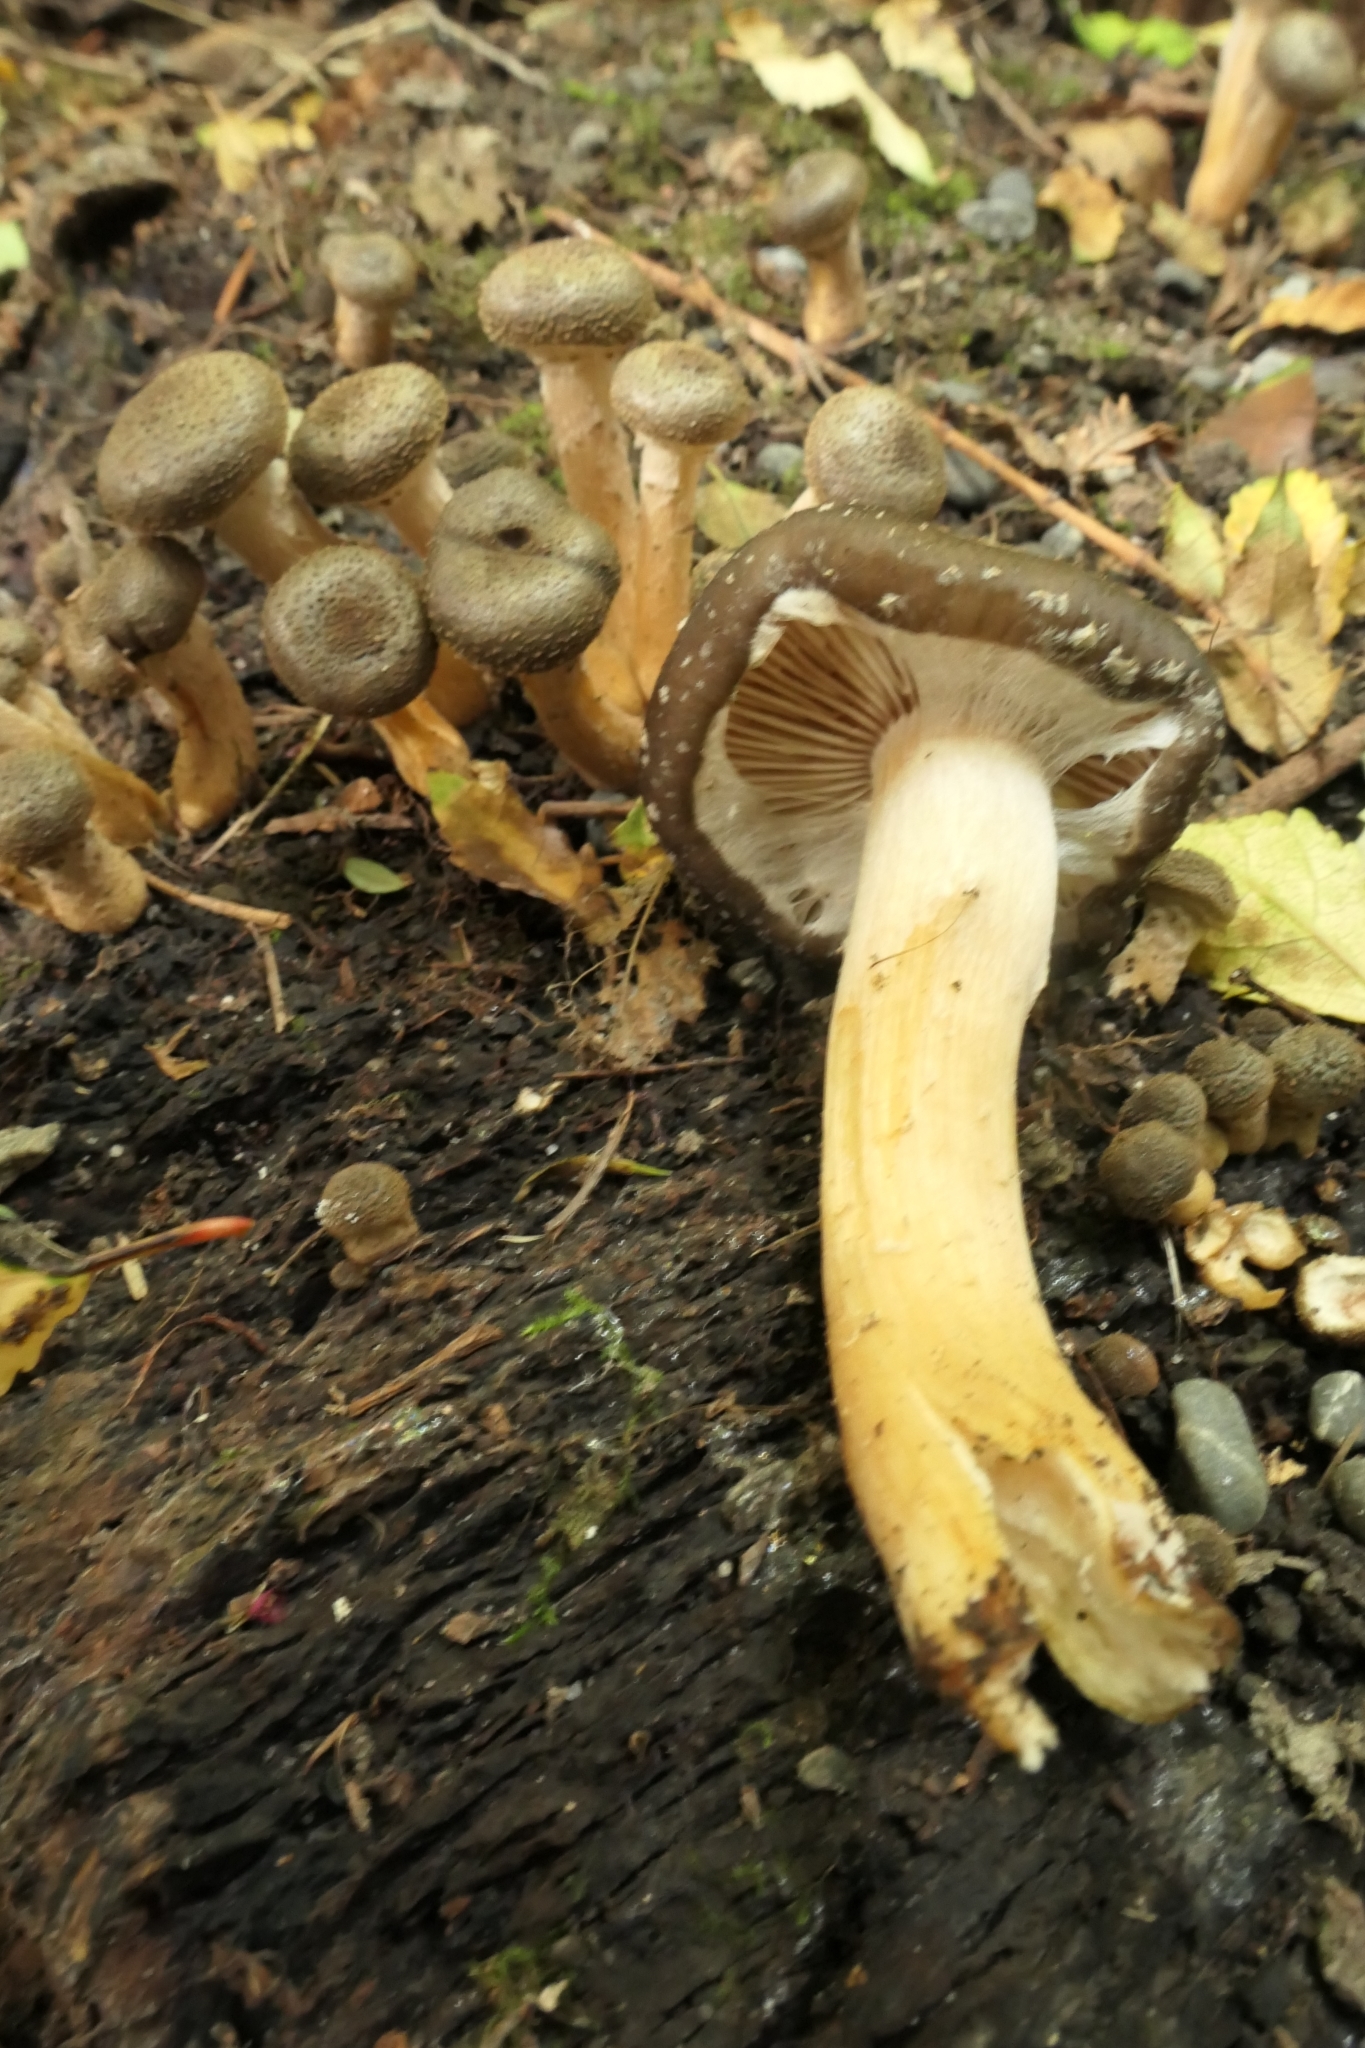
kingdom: Fungi
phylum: Basidiomycota
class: Agaricomycetes
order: Agaricales
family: Physalacriaceae
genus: Armillaria
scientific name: Armillaria novae-zelandiae
